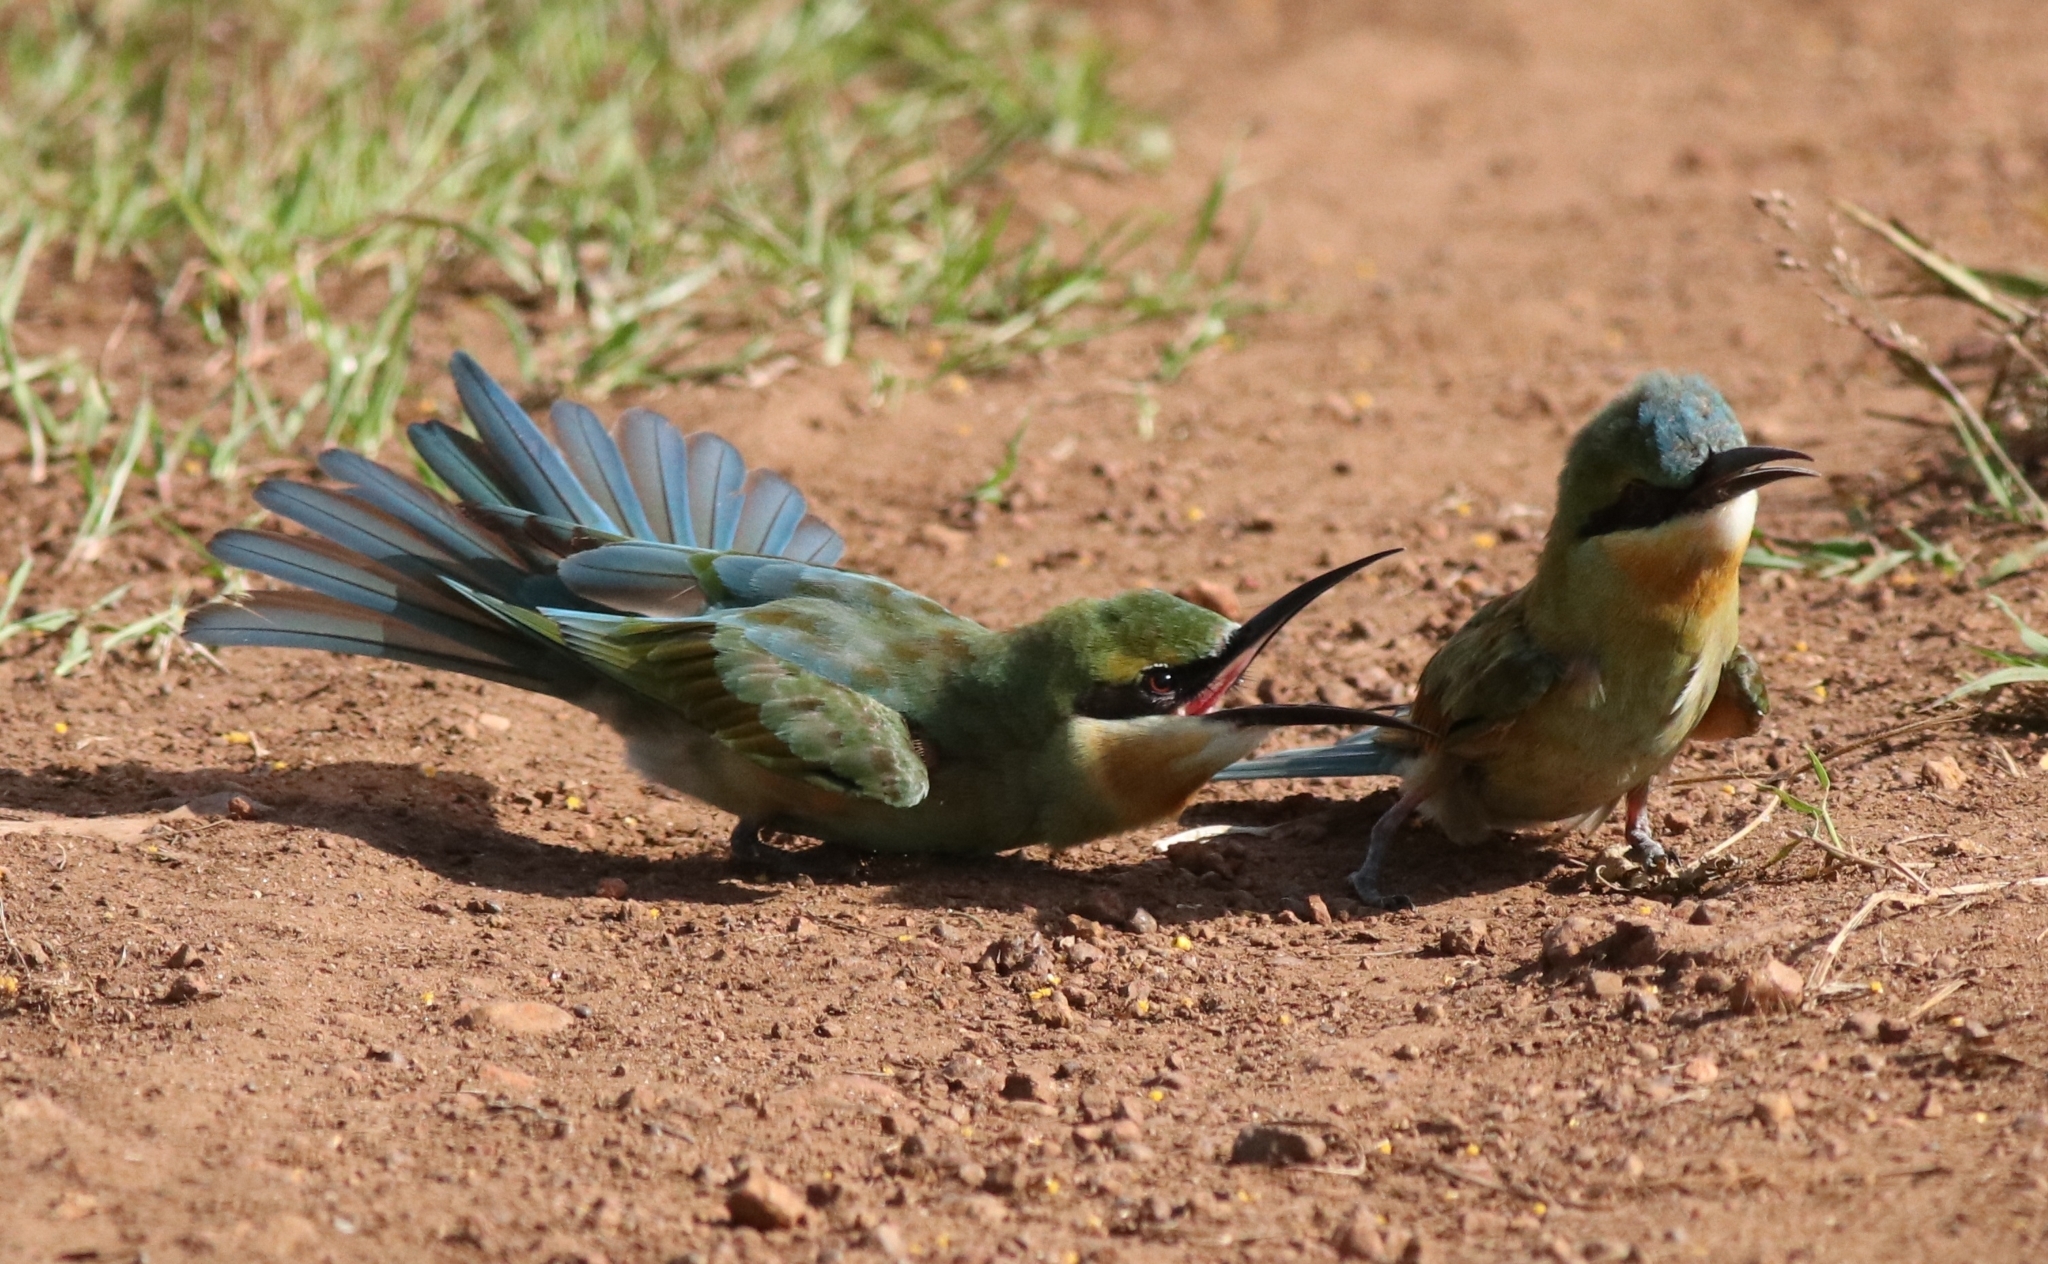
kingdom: Animalia
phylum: Chordata
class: Aves
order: Coraciiformes
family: Meropidae
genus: Merops
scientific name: Merops philippinus
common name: Blue-tailed bee-eater
